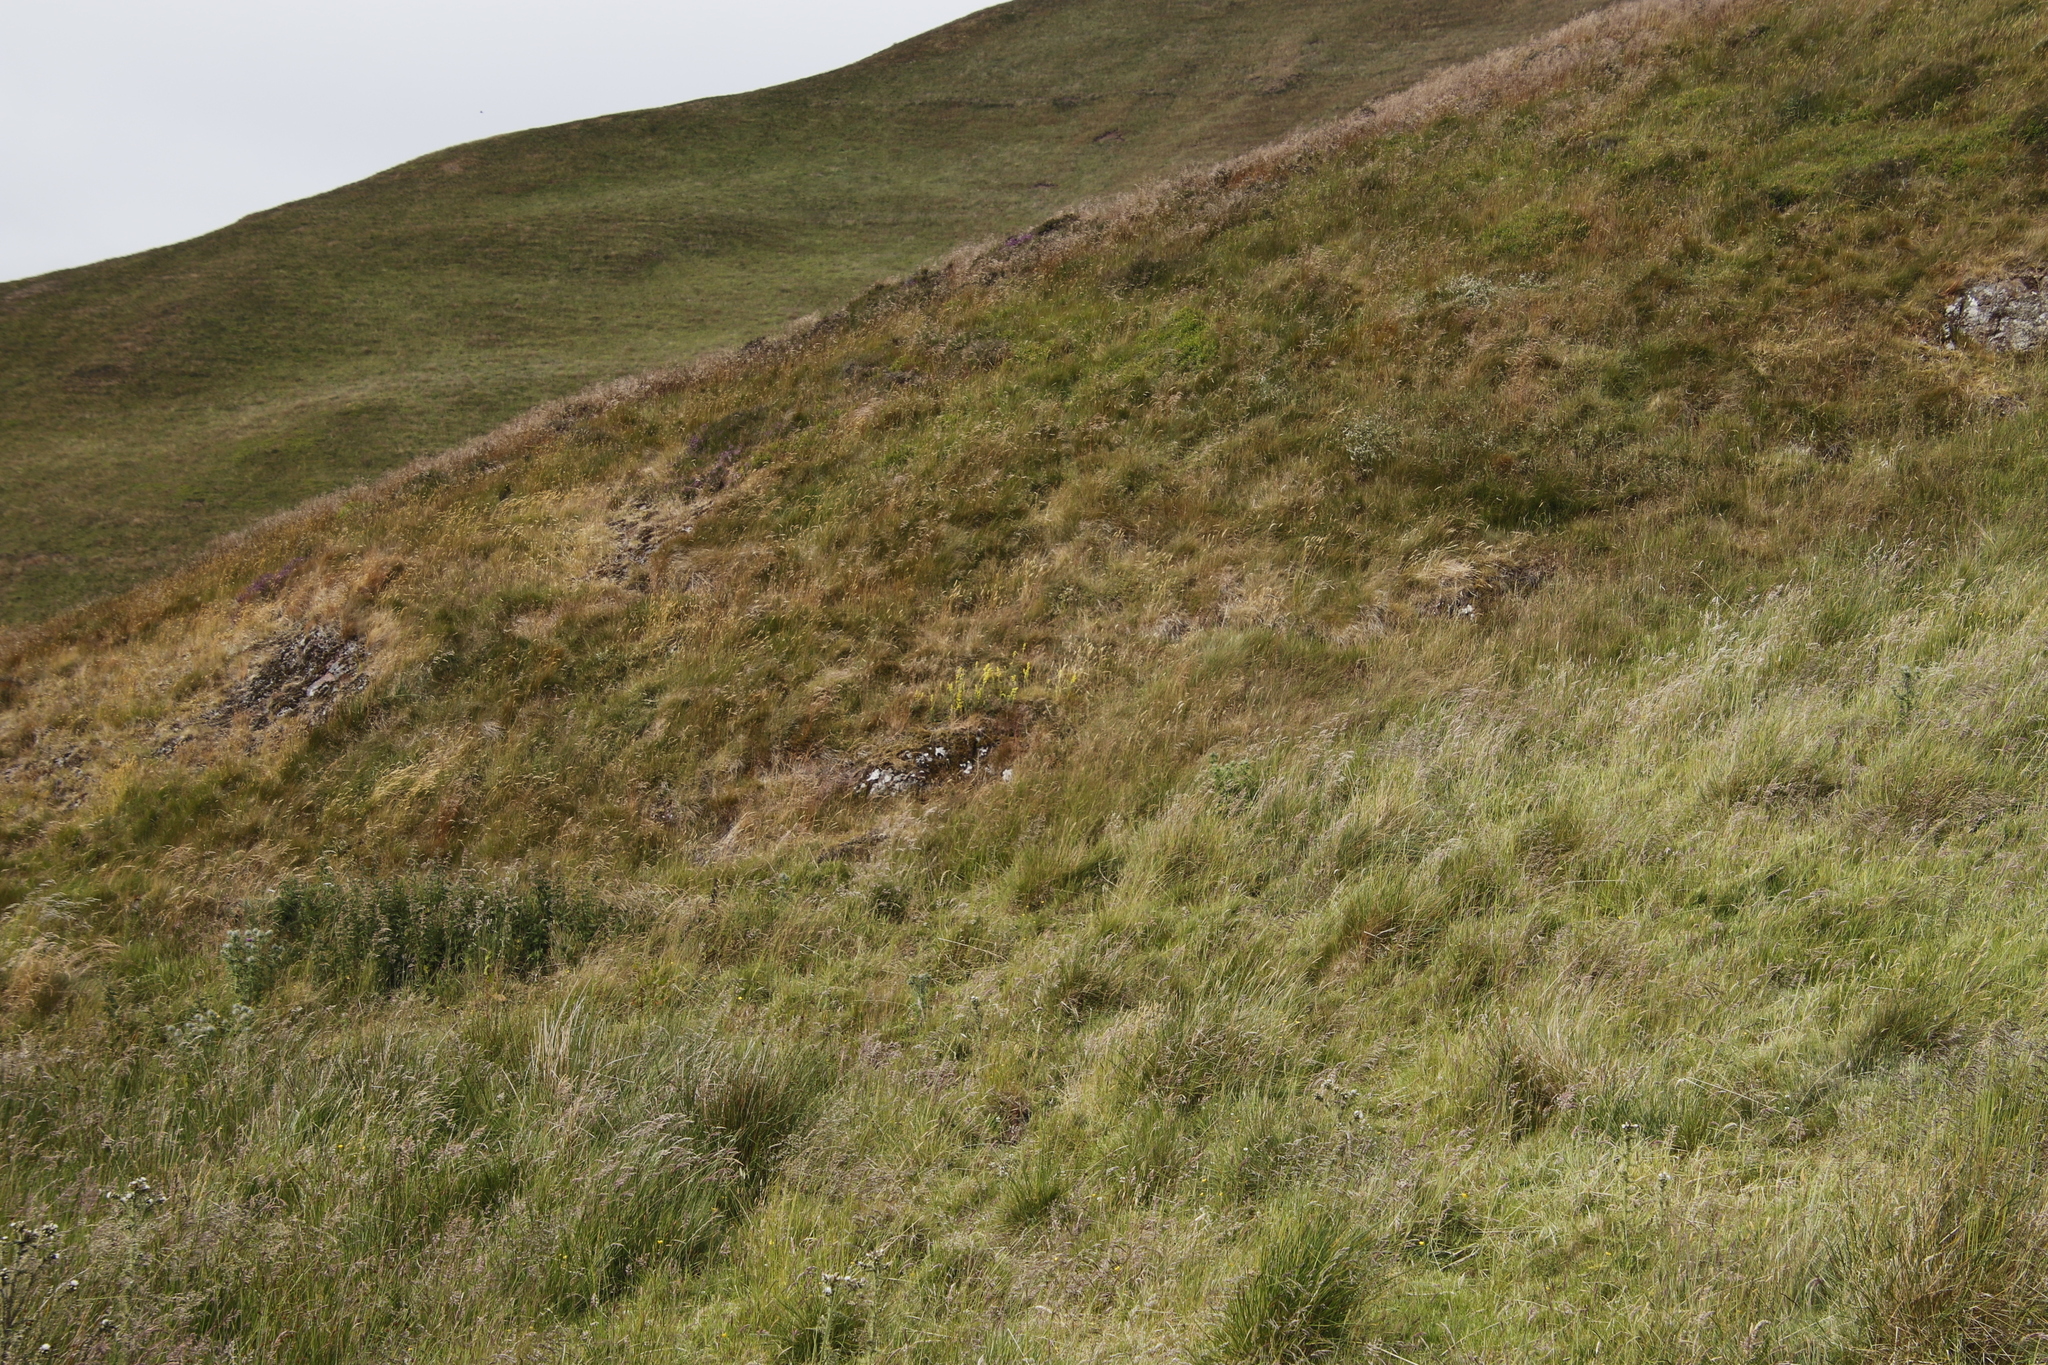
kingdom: Plantae
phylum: Tracheophyta
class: Magnoliopsida
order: Gentianales
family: Rubiaceae
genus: Galium
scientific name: Galium verum
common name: Lady's bedstraw
